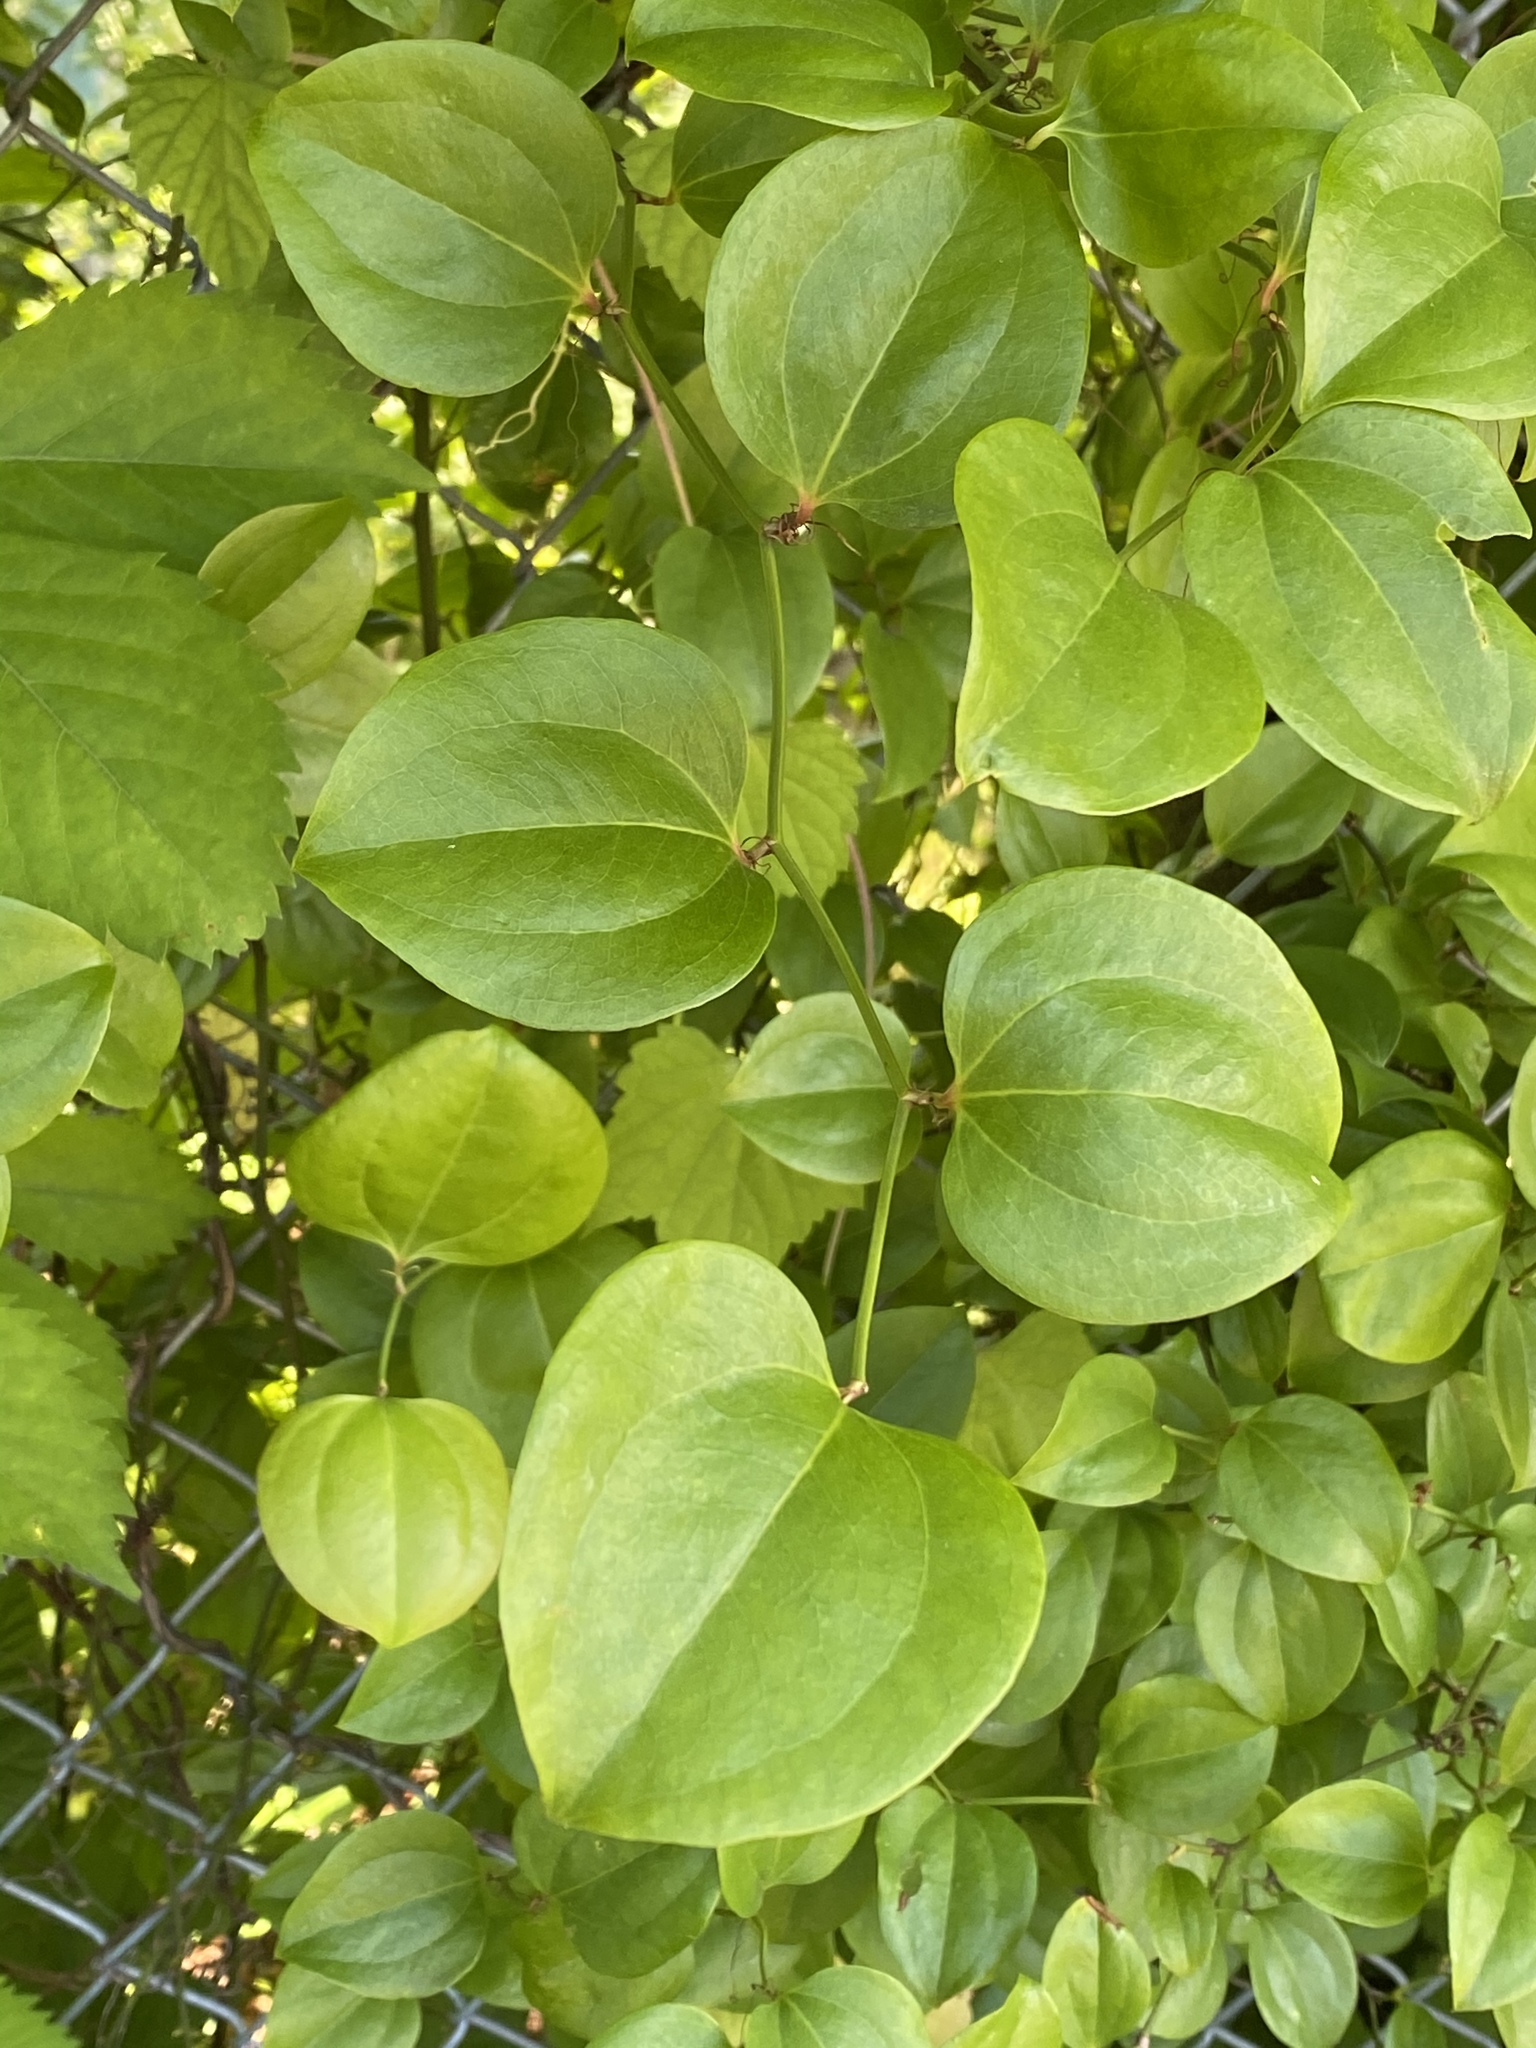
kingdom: Plantae
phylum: Tracheophyta
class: Liliopsida
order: Liliales
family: Smilacaceae
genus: Smilax
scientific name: Smilax rotundifolia
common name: Bullbriar
